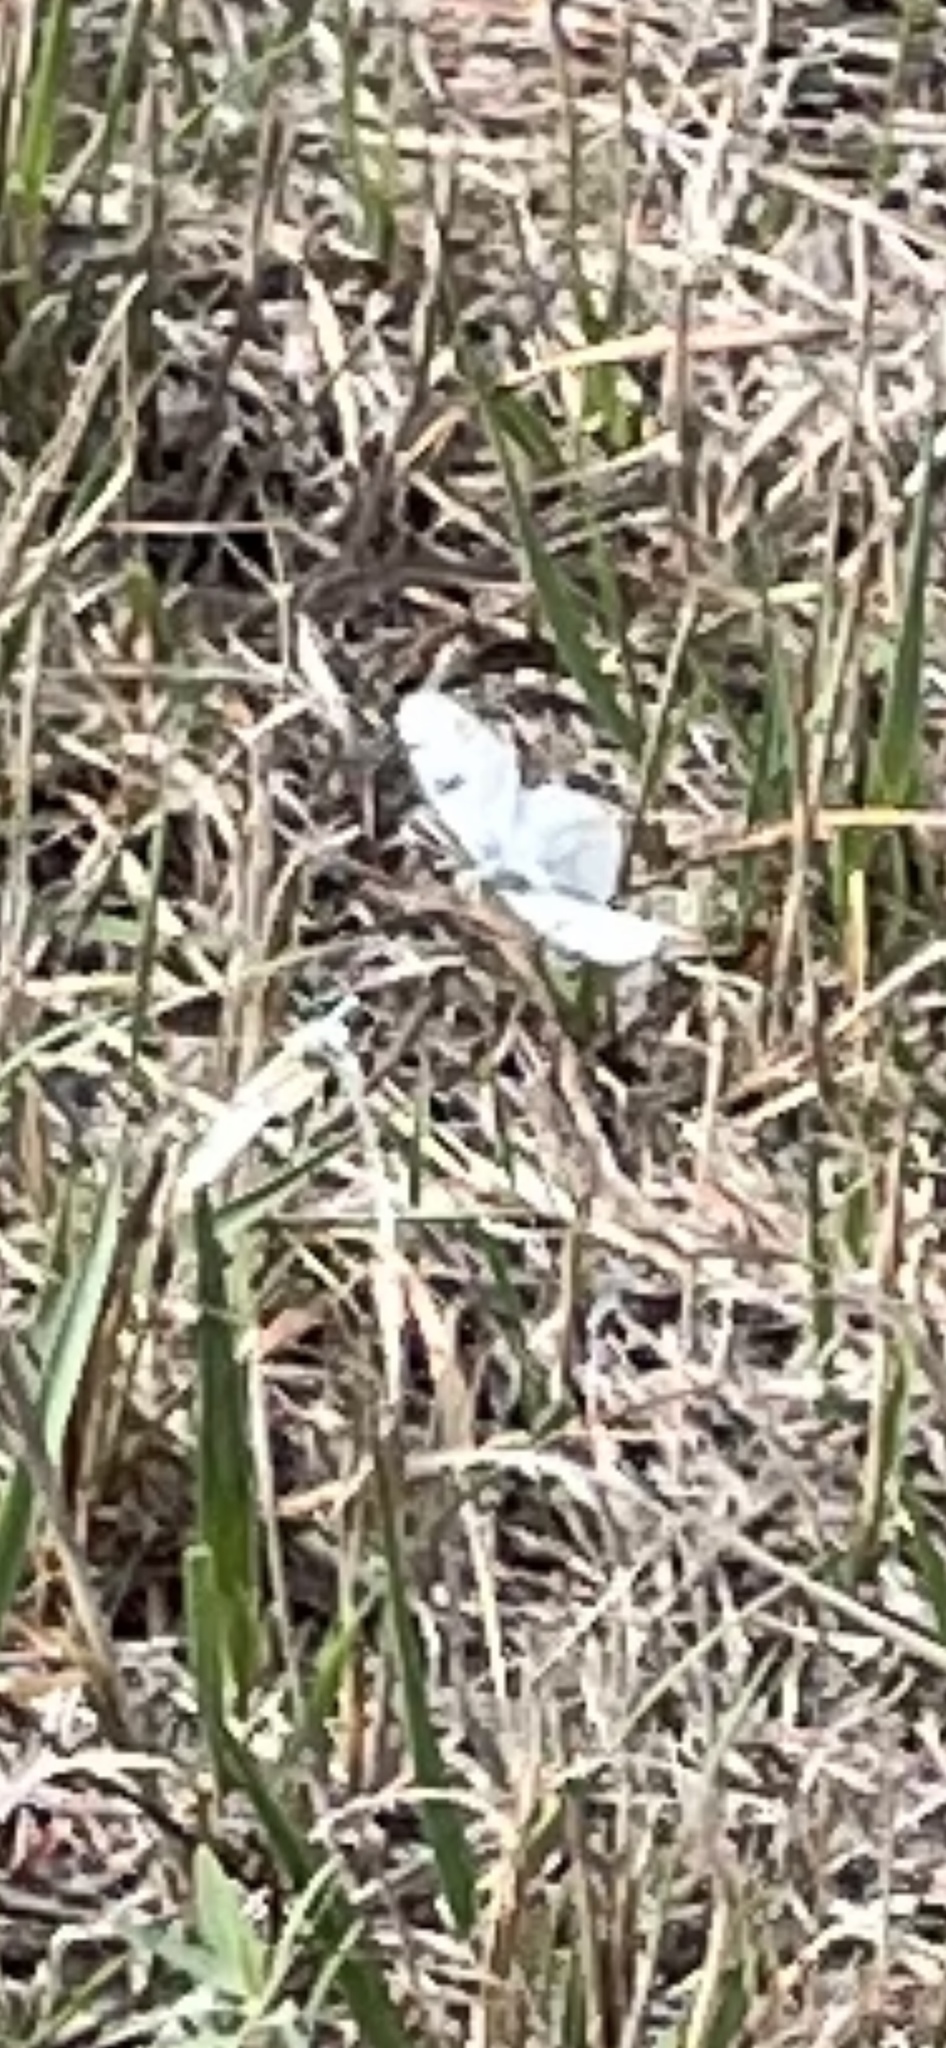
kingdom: Animalia
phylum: Arthropoda
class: Insecta
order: Lepidoptera
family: Pieridae
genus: Euchloe
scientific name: Euchloe olympia
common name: Olympia
